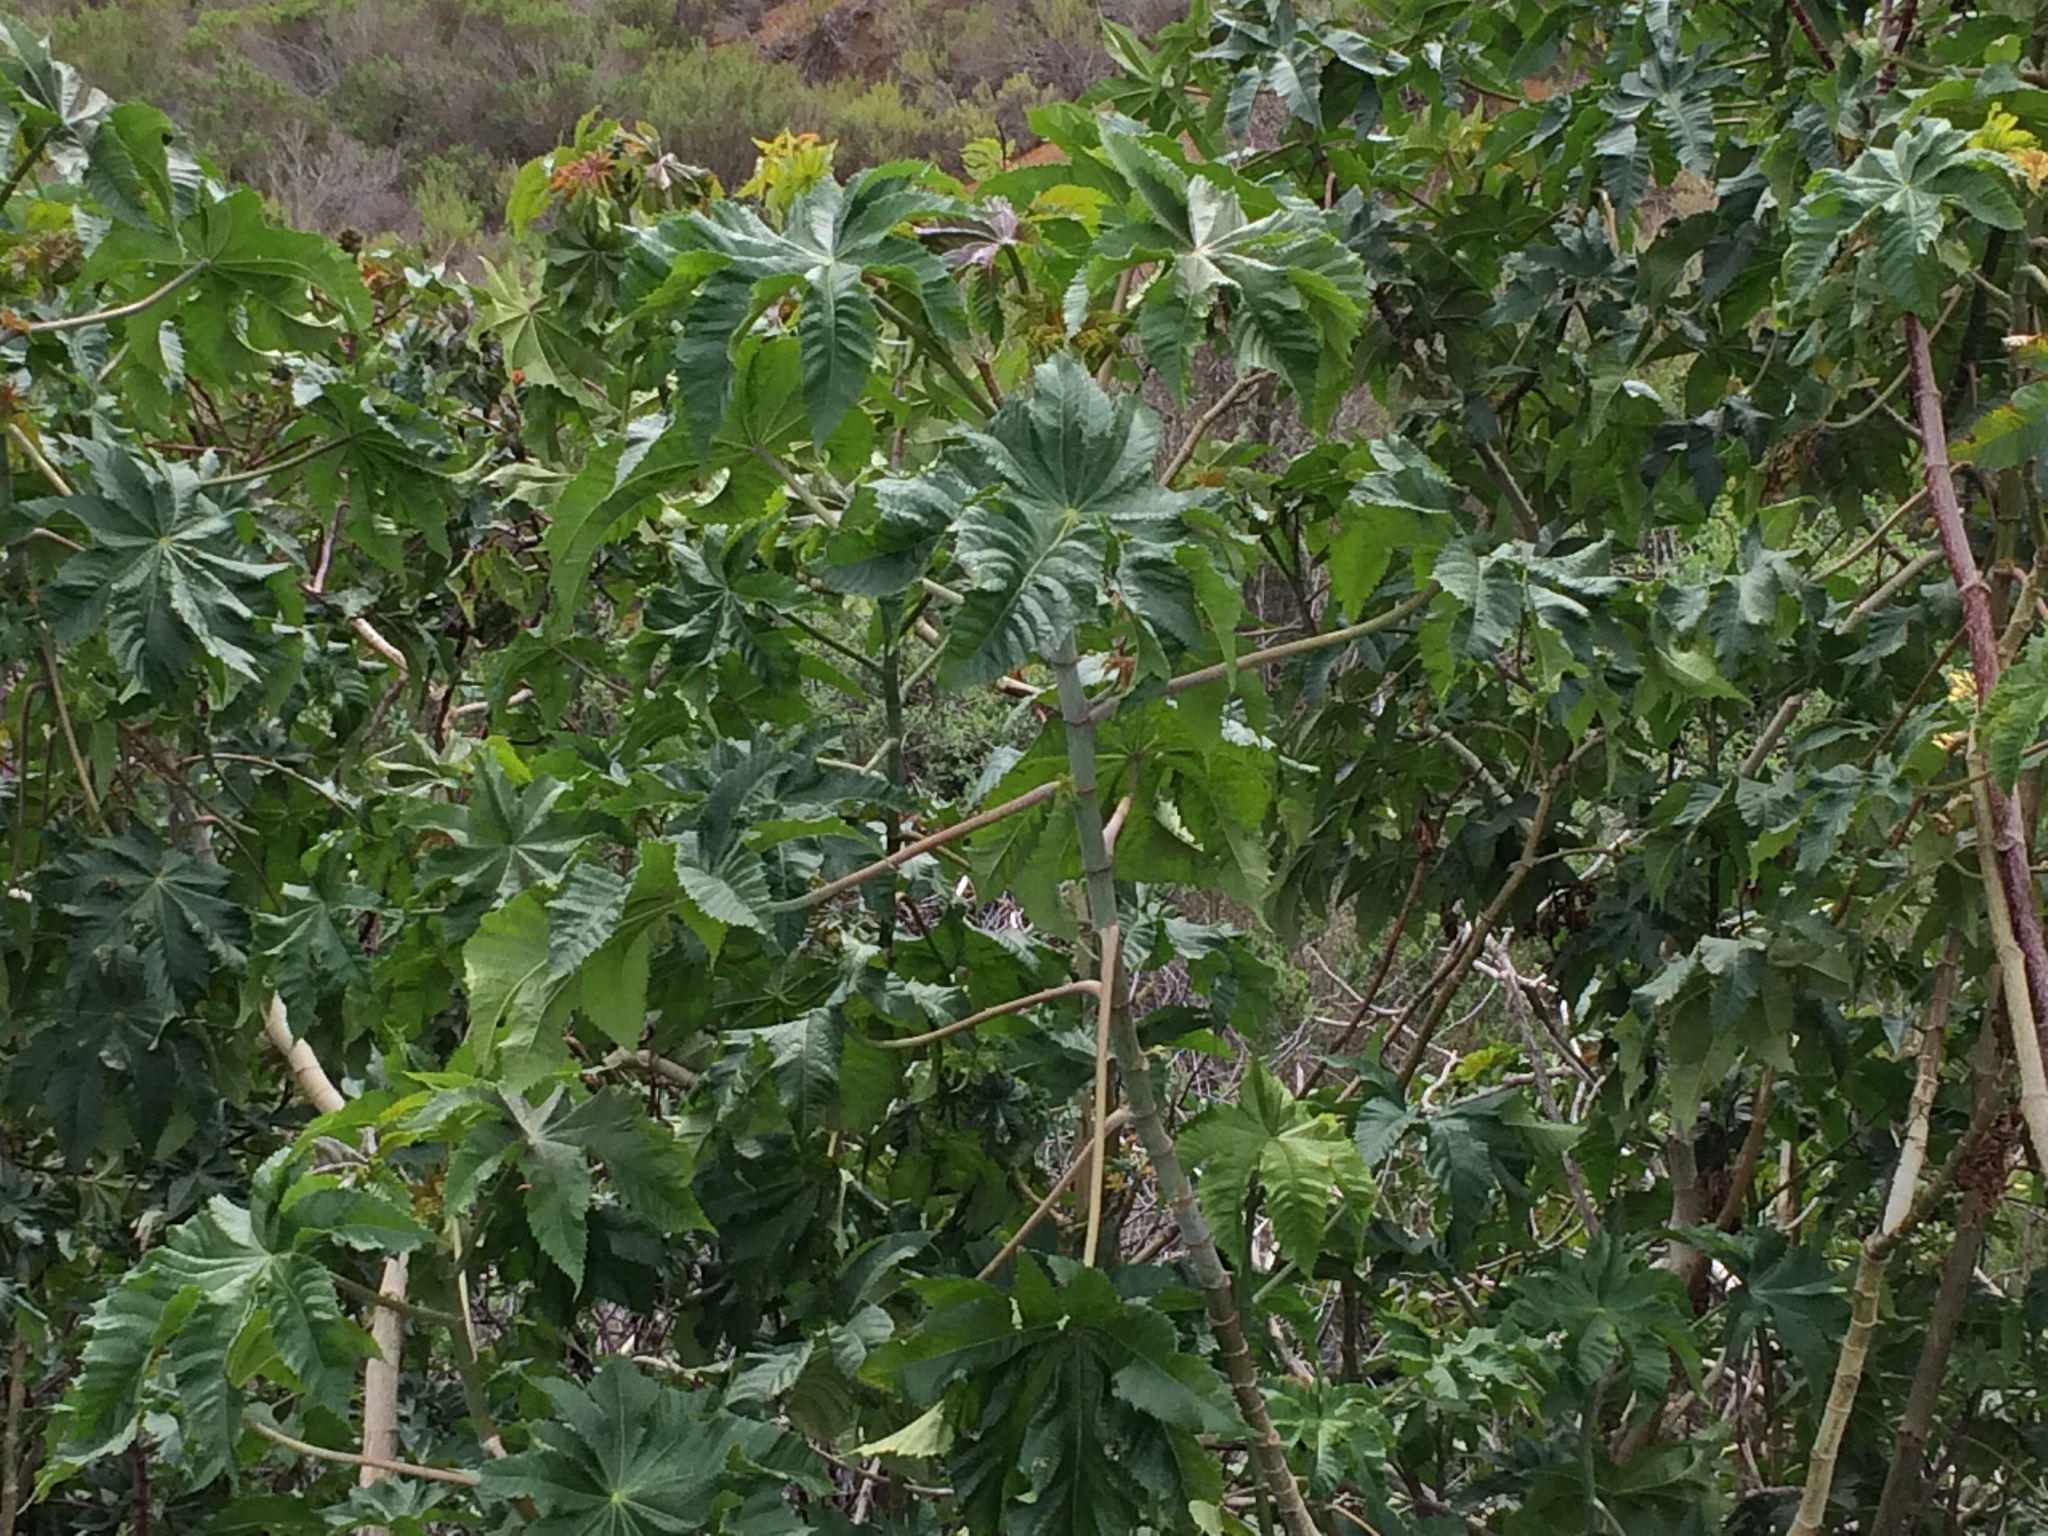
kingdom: Plantae
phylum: Tracheophyta
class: Magnoliopsida
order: Malpighiales
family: Euphorbiaceae
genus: Ricinus
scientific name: Ricinus communis
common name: Castor-oil-plant
